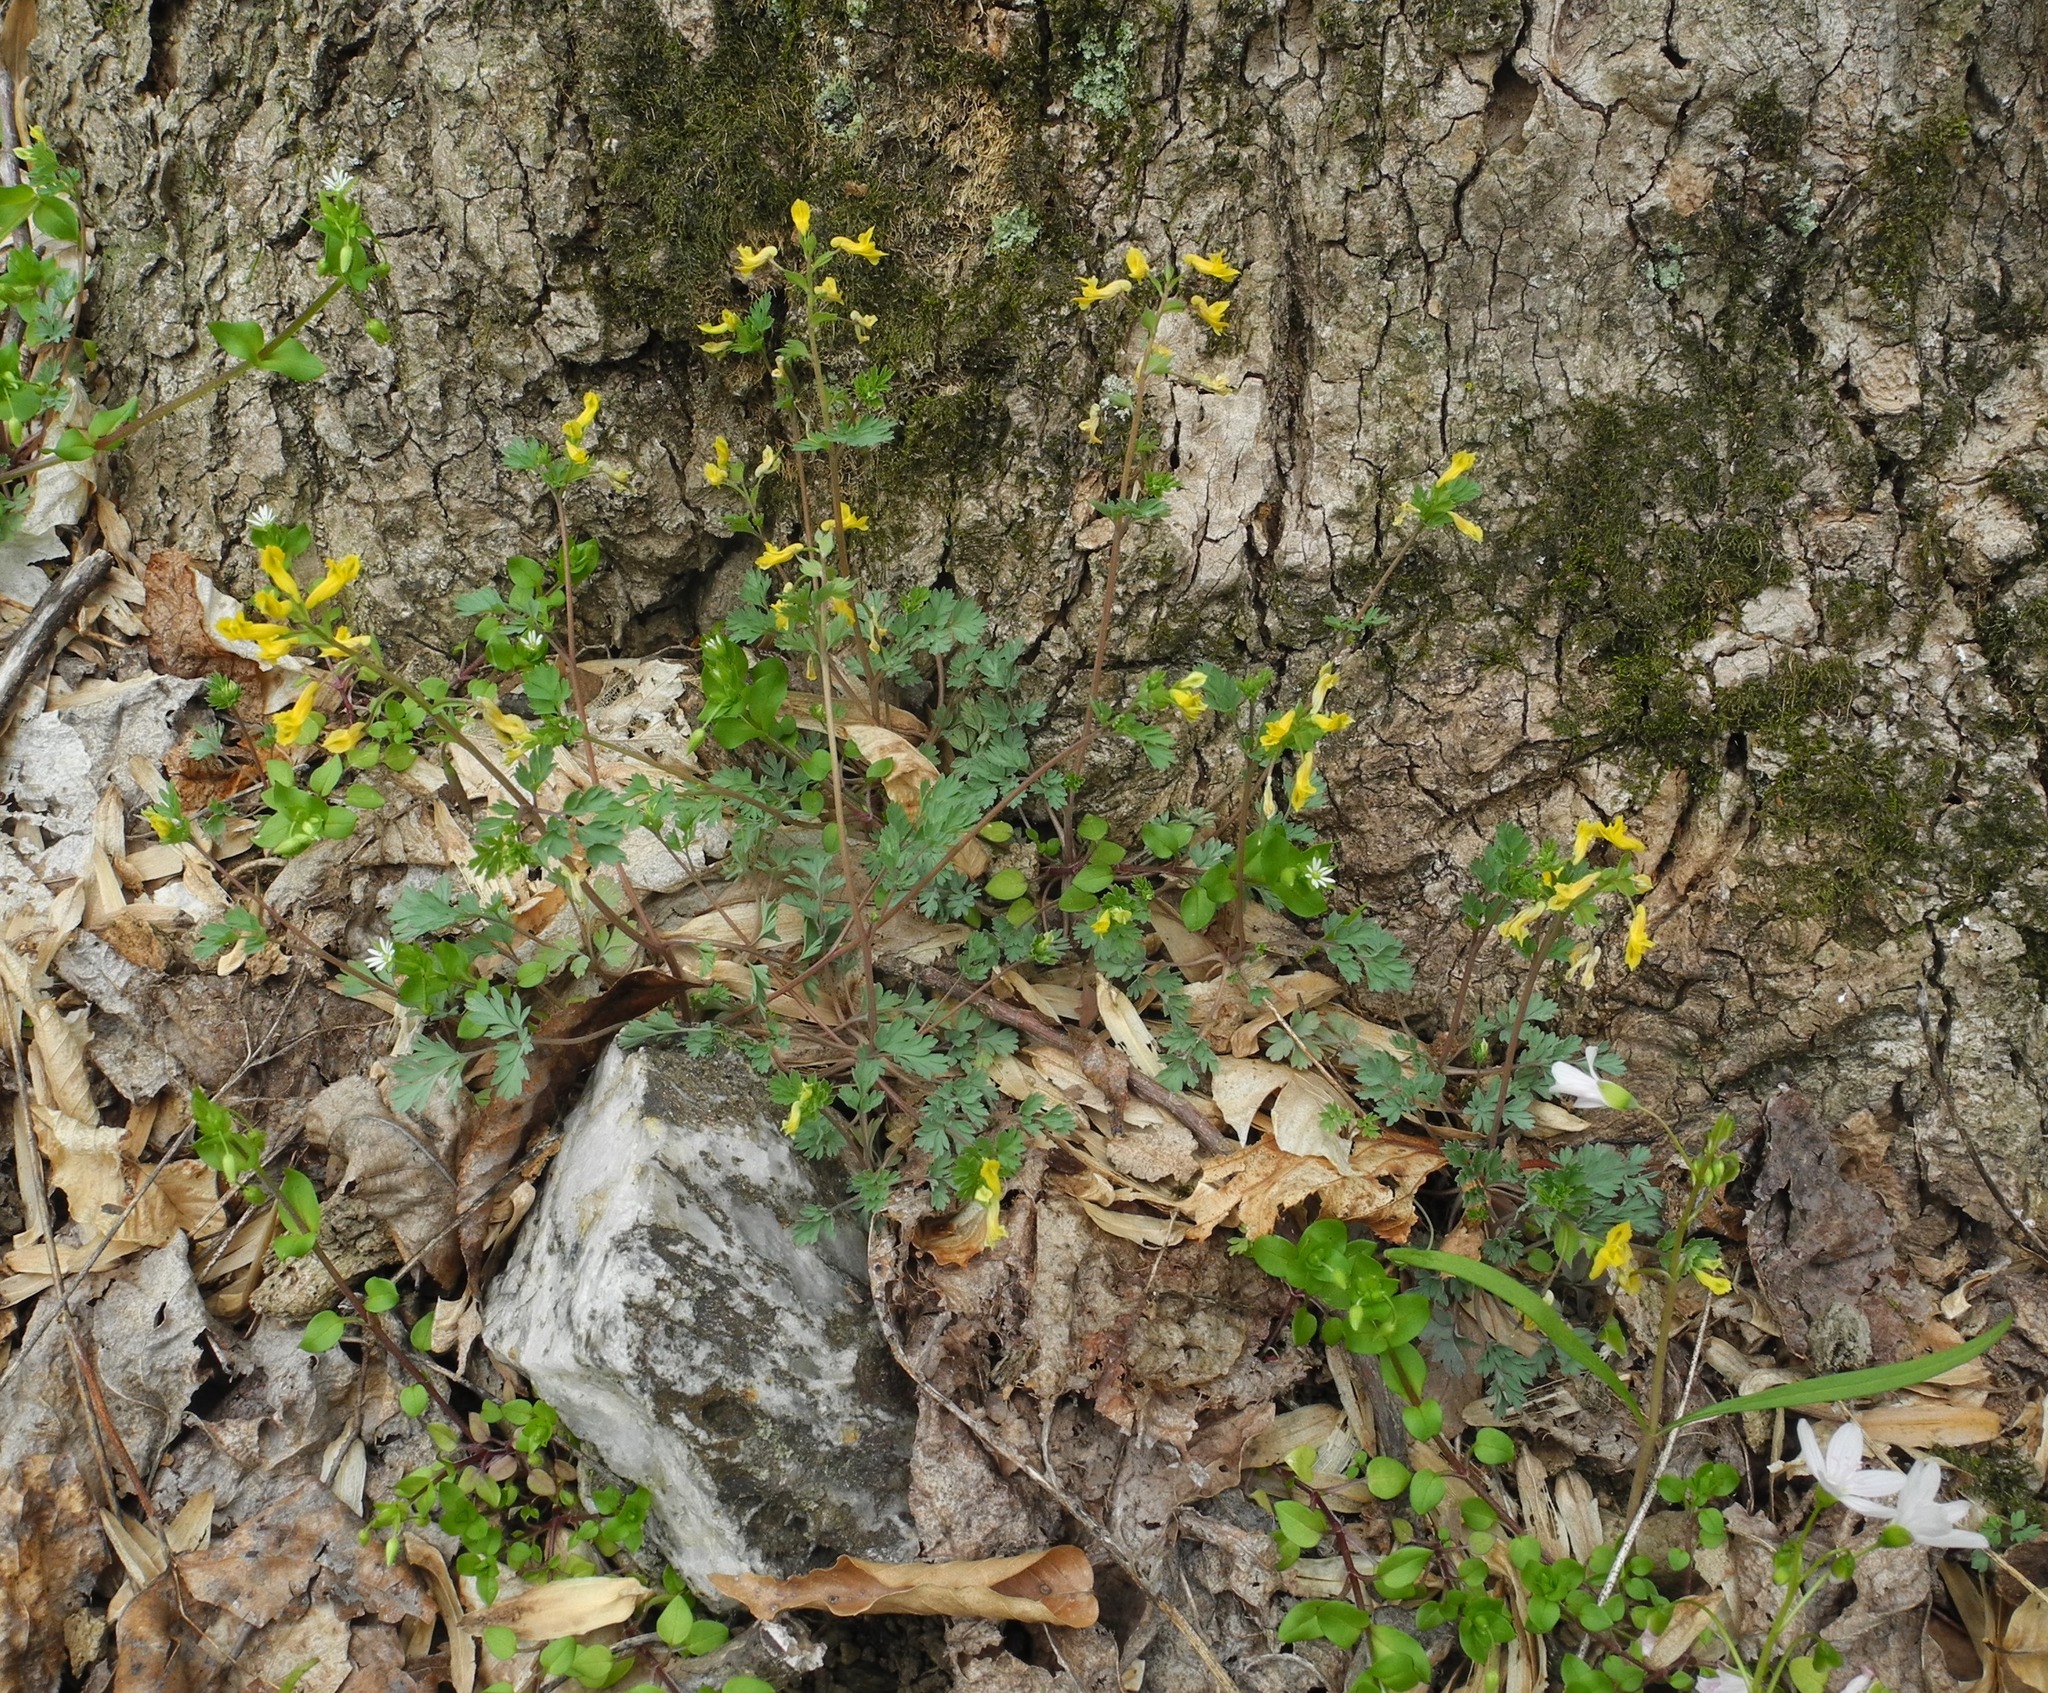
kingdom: Plantae
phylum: Tracheophyta
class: Magnoliopsida
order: Ranunculales
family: Papaveraceae
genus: Corydalis
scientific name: Corydalis flavula
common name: Yellow corydalis
